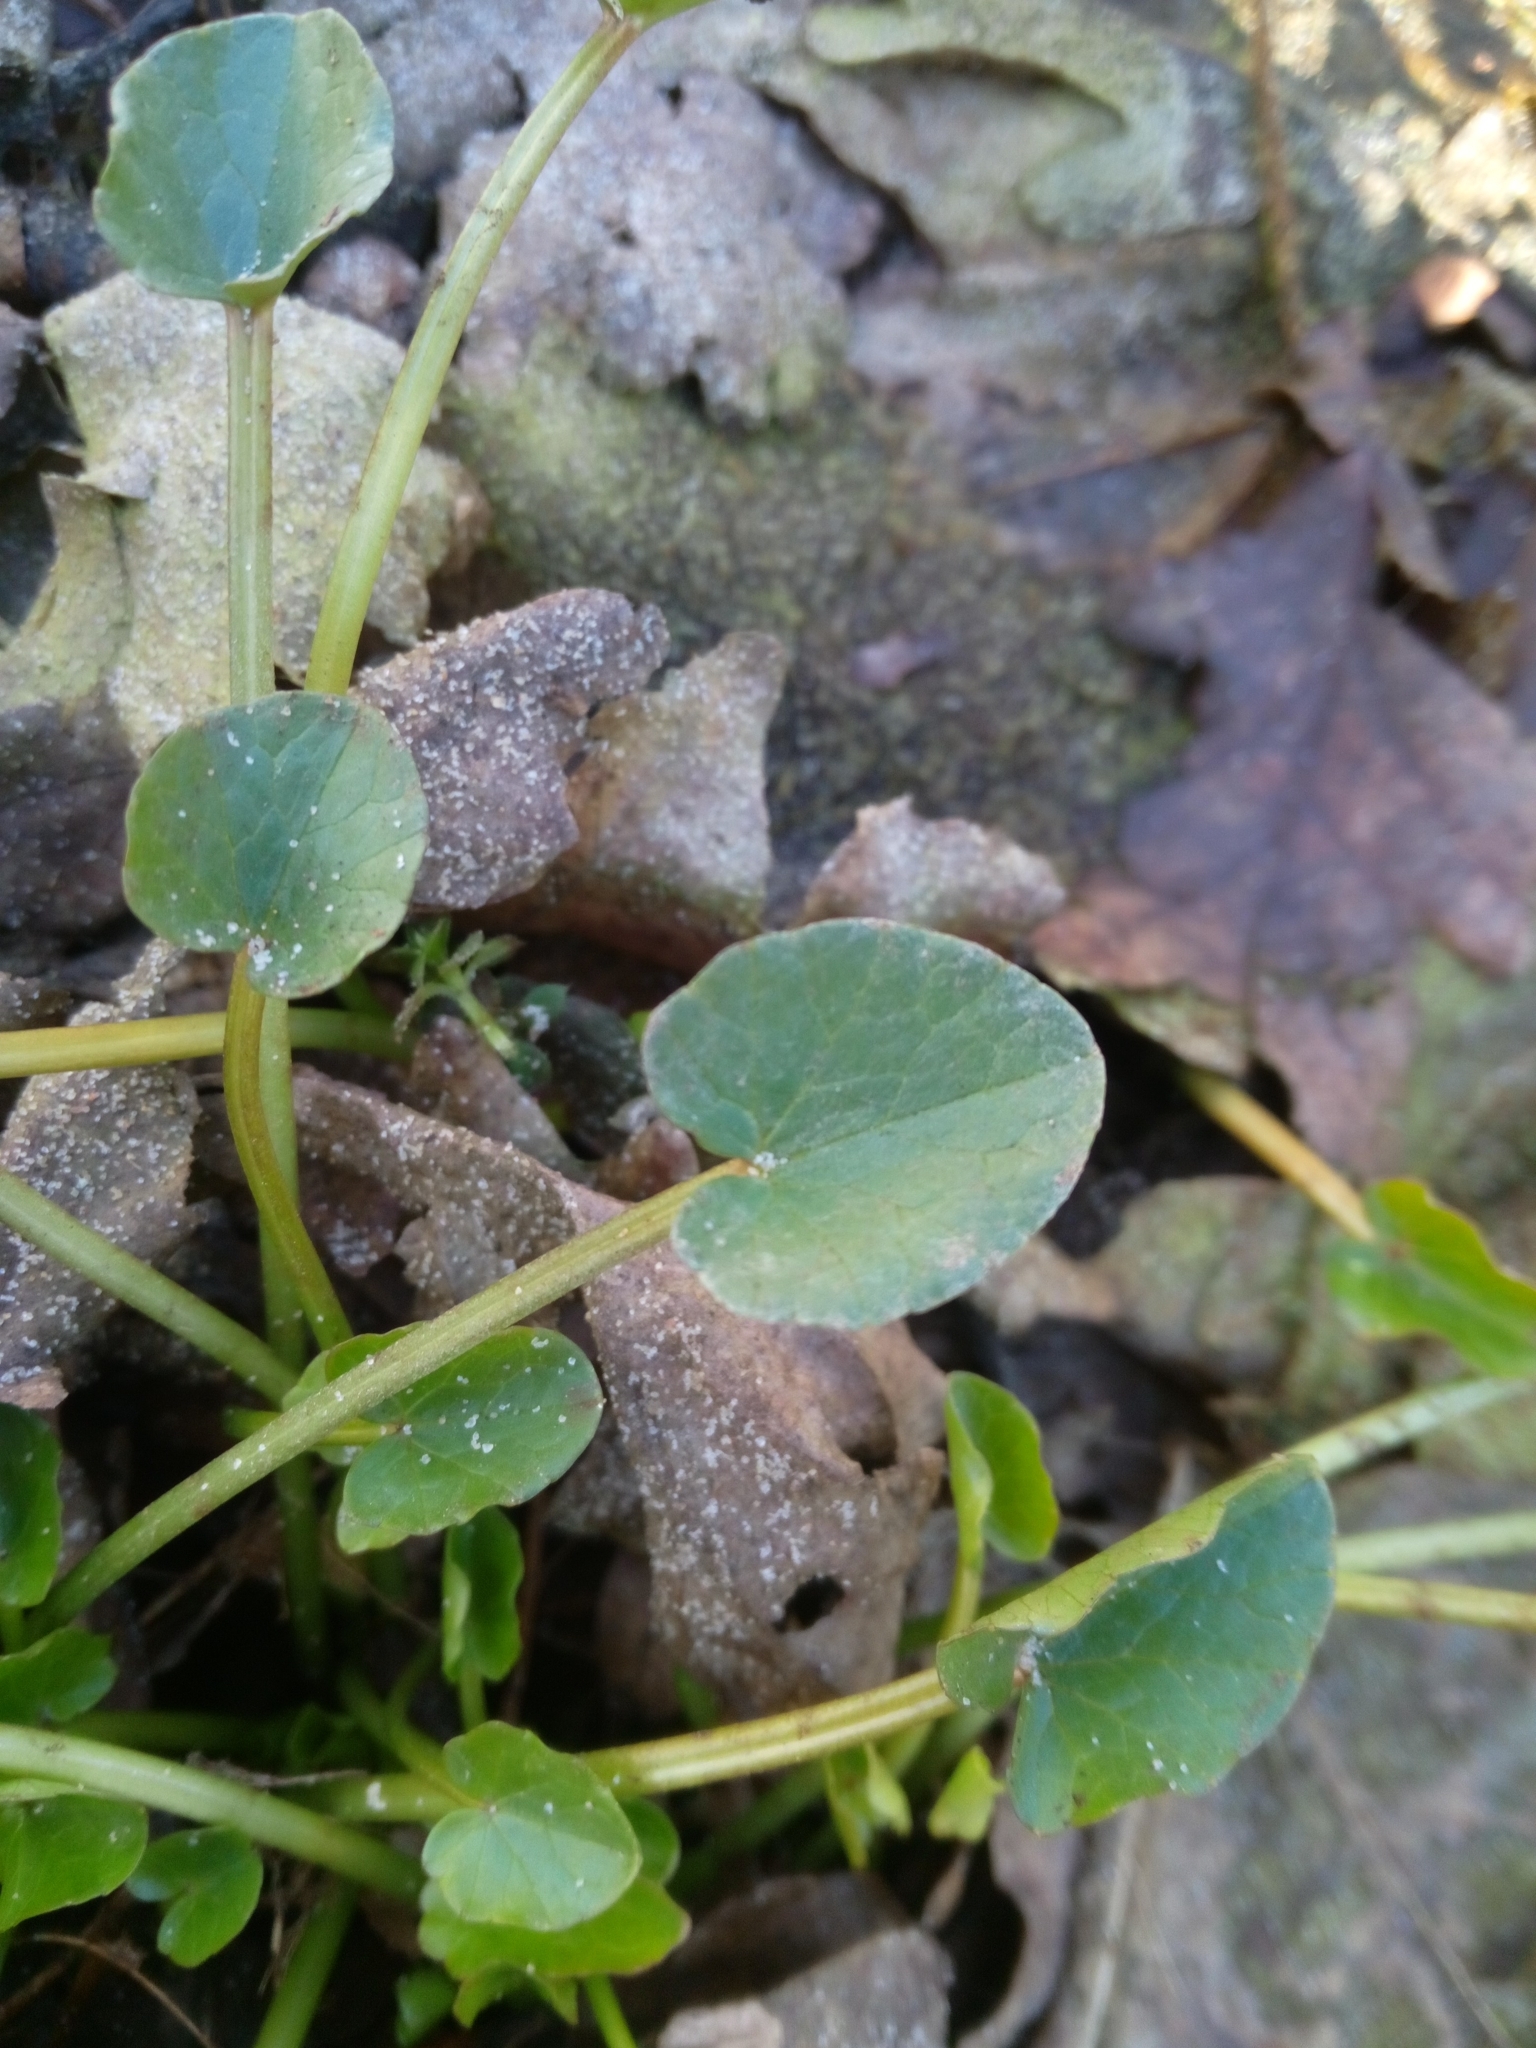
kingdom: Plantae
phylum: Tracheophyta
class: Magnoliopsida
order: Ranunculales
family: Ranunculaceae
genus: Ficaria
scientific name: Ficaria verna
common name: Lesser celandine
